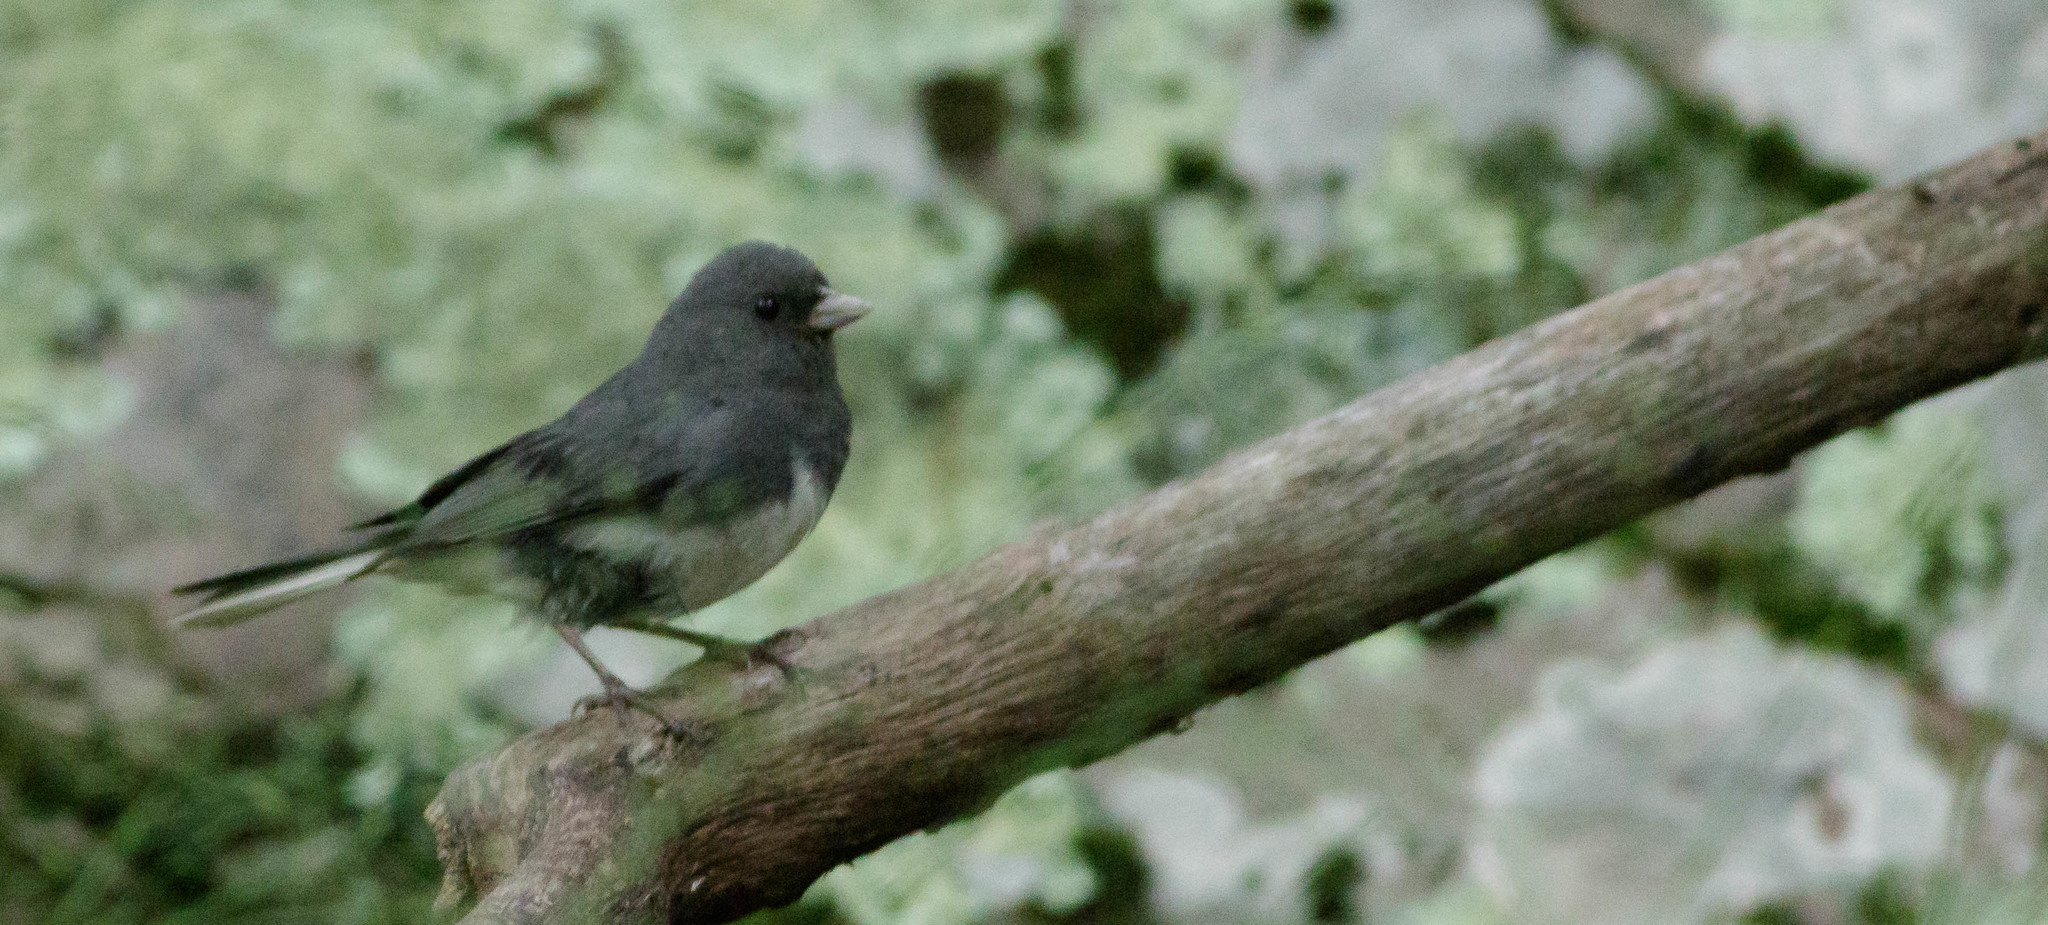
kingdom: Animalia
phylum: Chordata
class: Aves
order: Passeriformes
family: Passerellidae
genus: Junco
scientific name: Junco hyemalis
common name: Dark-eyed junco
